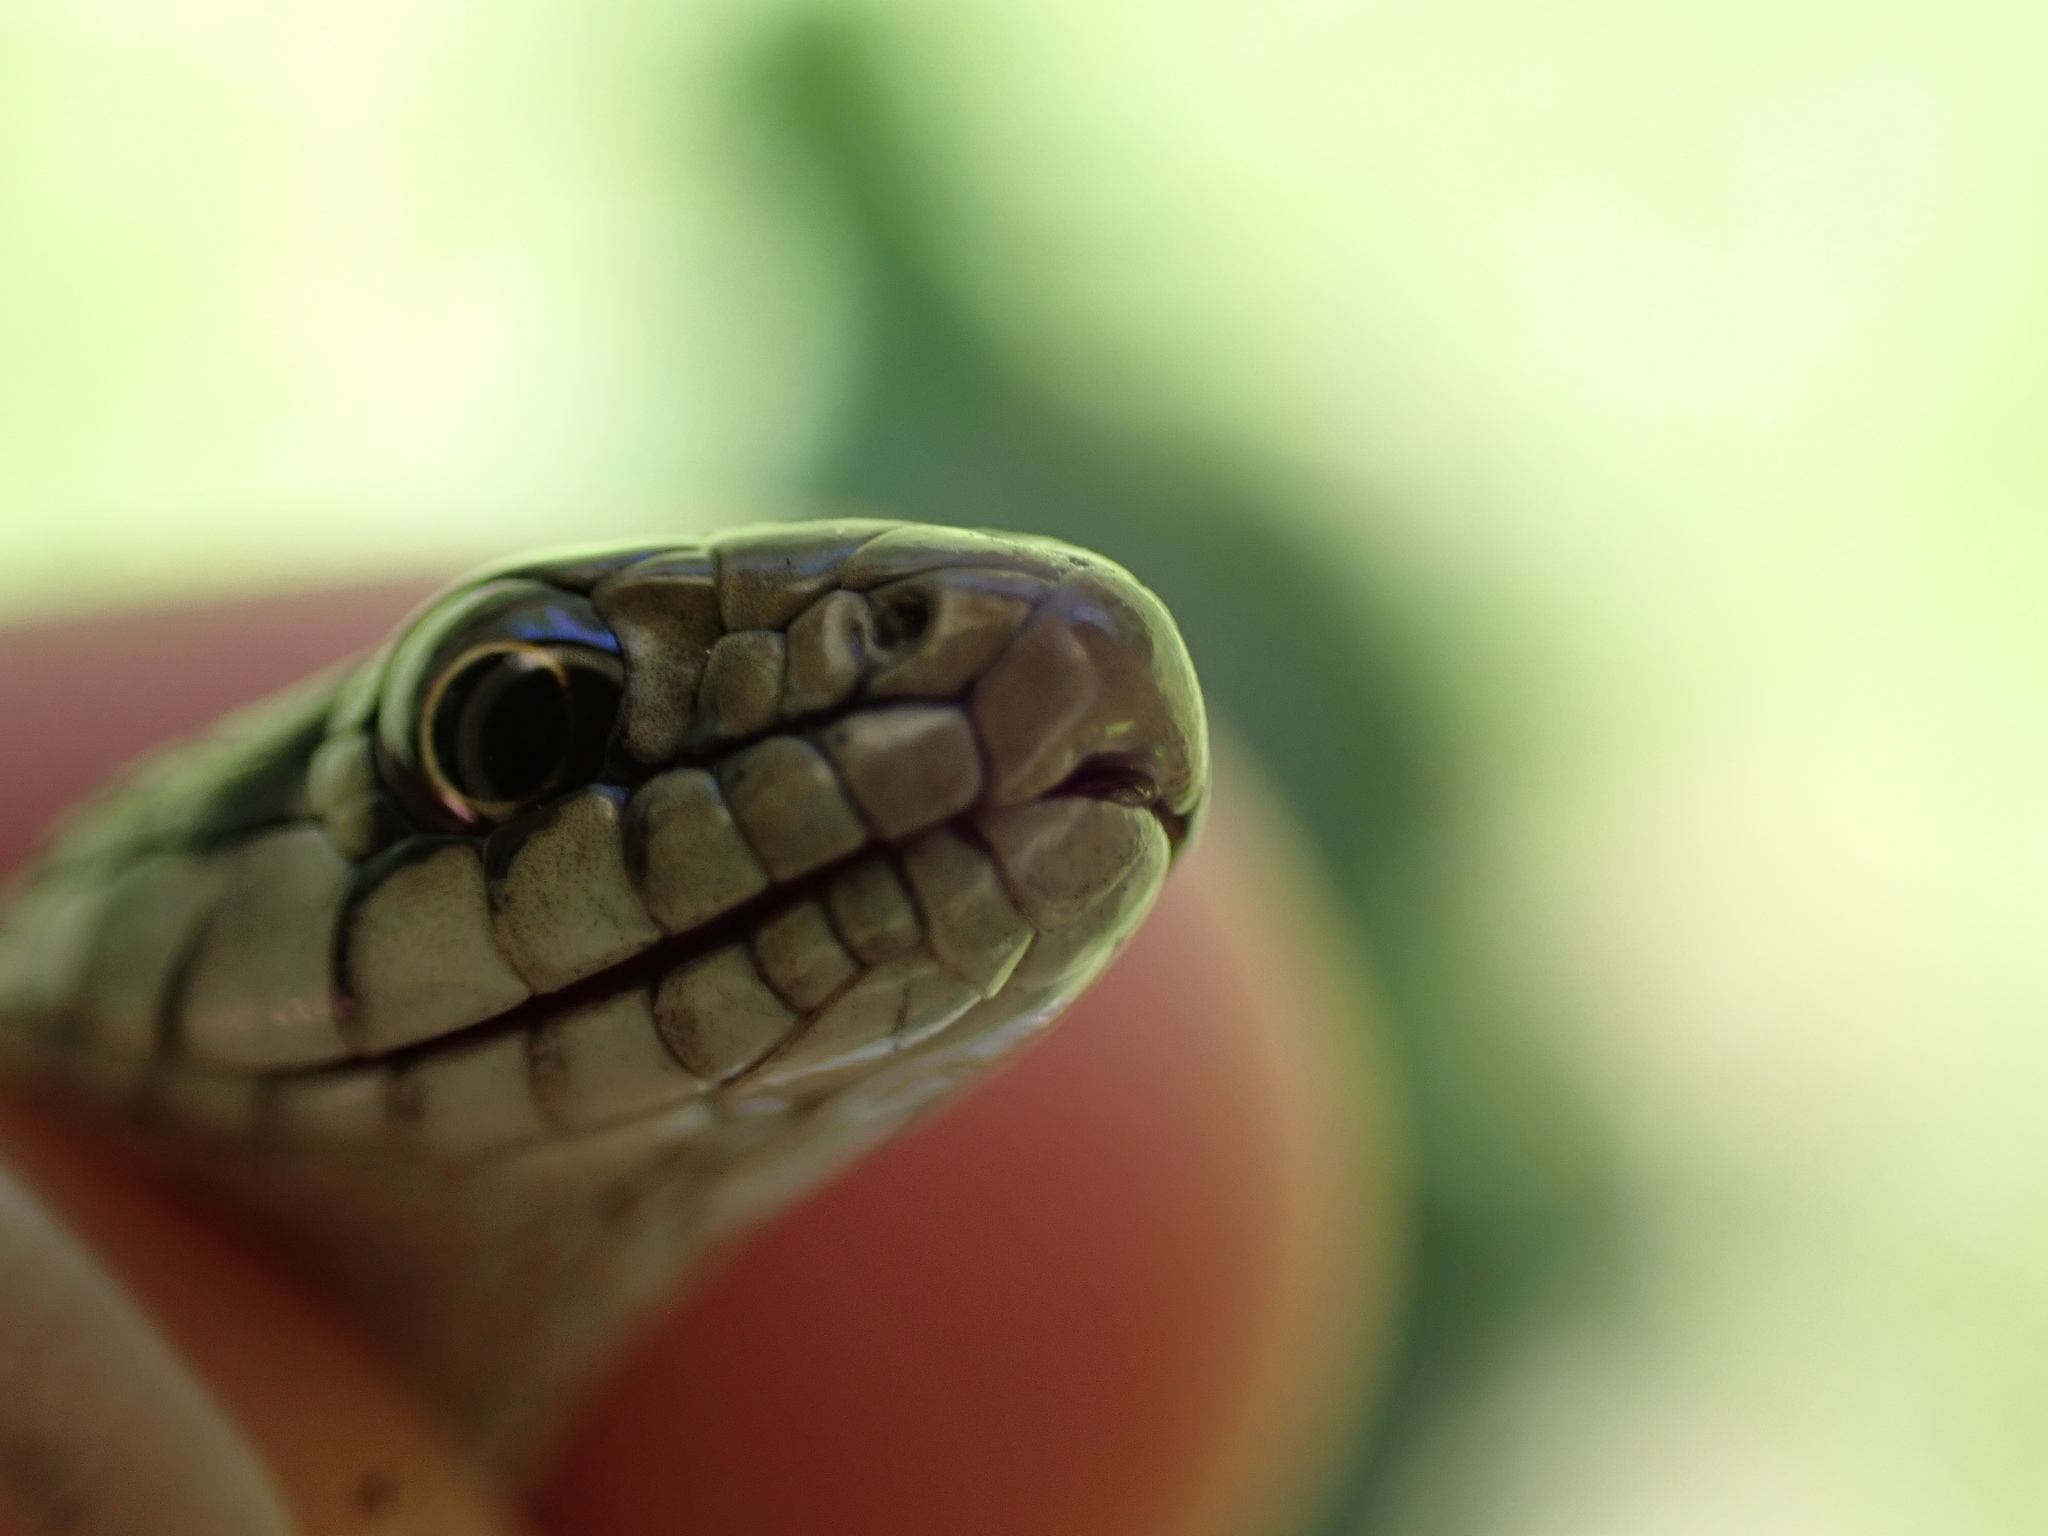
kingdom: Animalia
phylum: Chordata
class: Squamata
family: Colubridae
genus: Thamnophis
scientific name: Thamnophis elegans
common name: Western terrestrial garter snake
